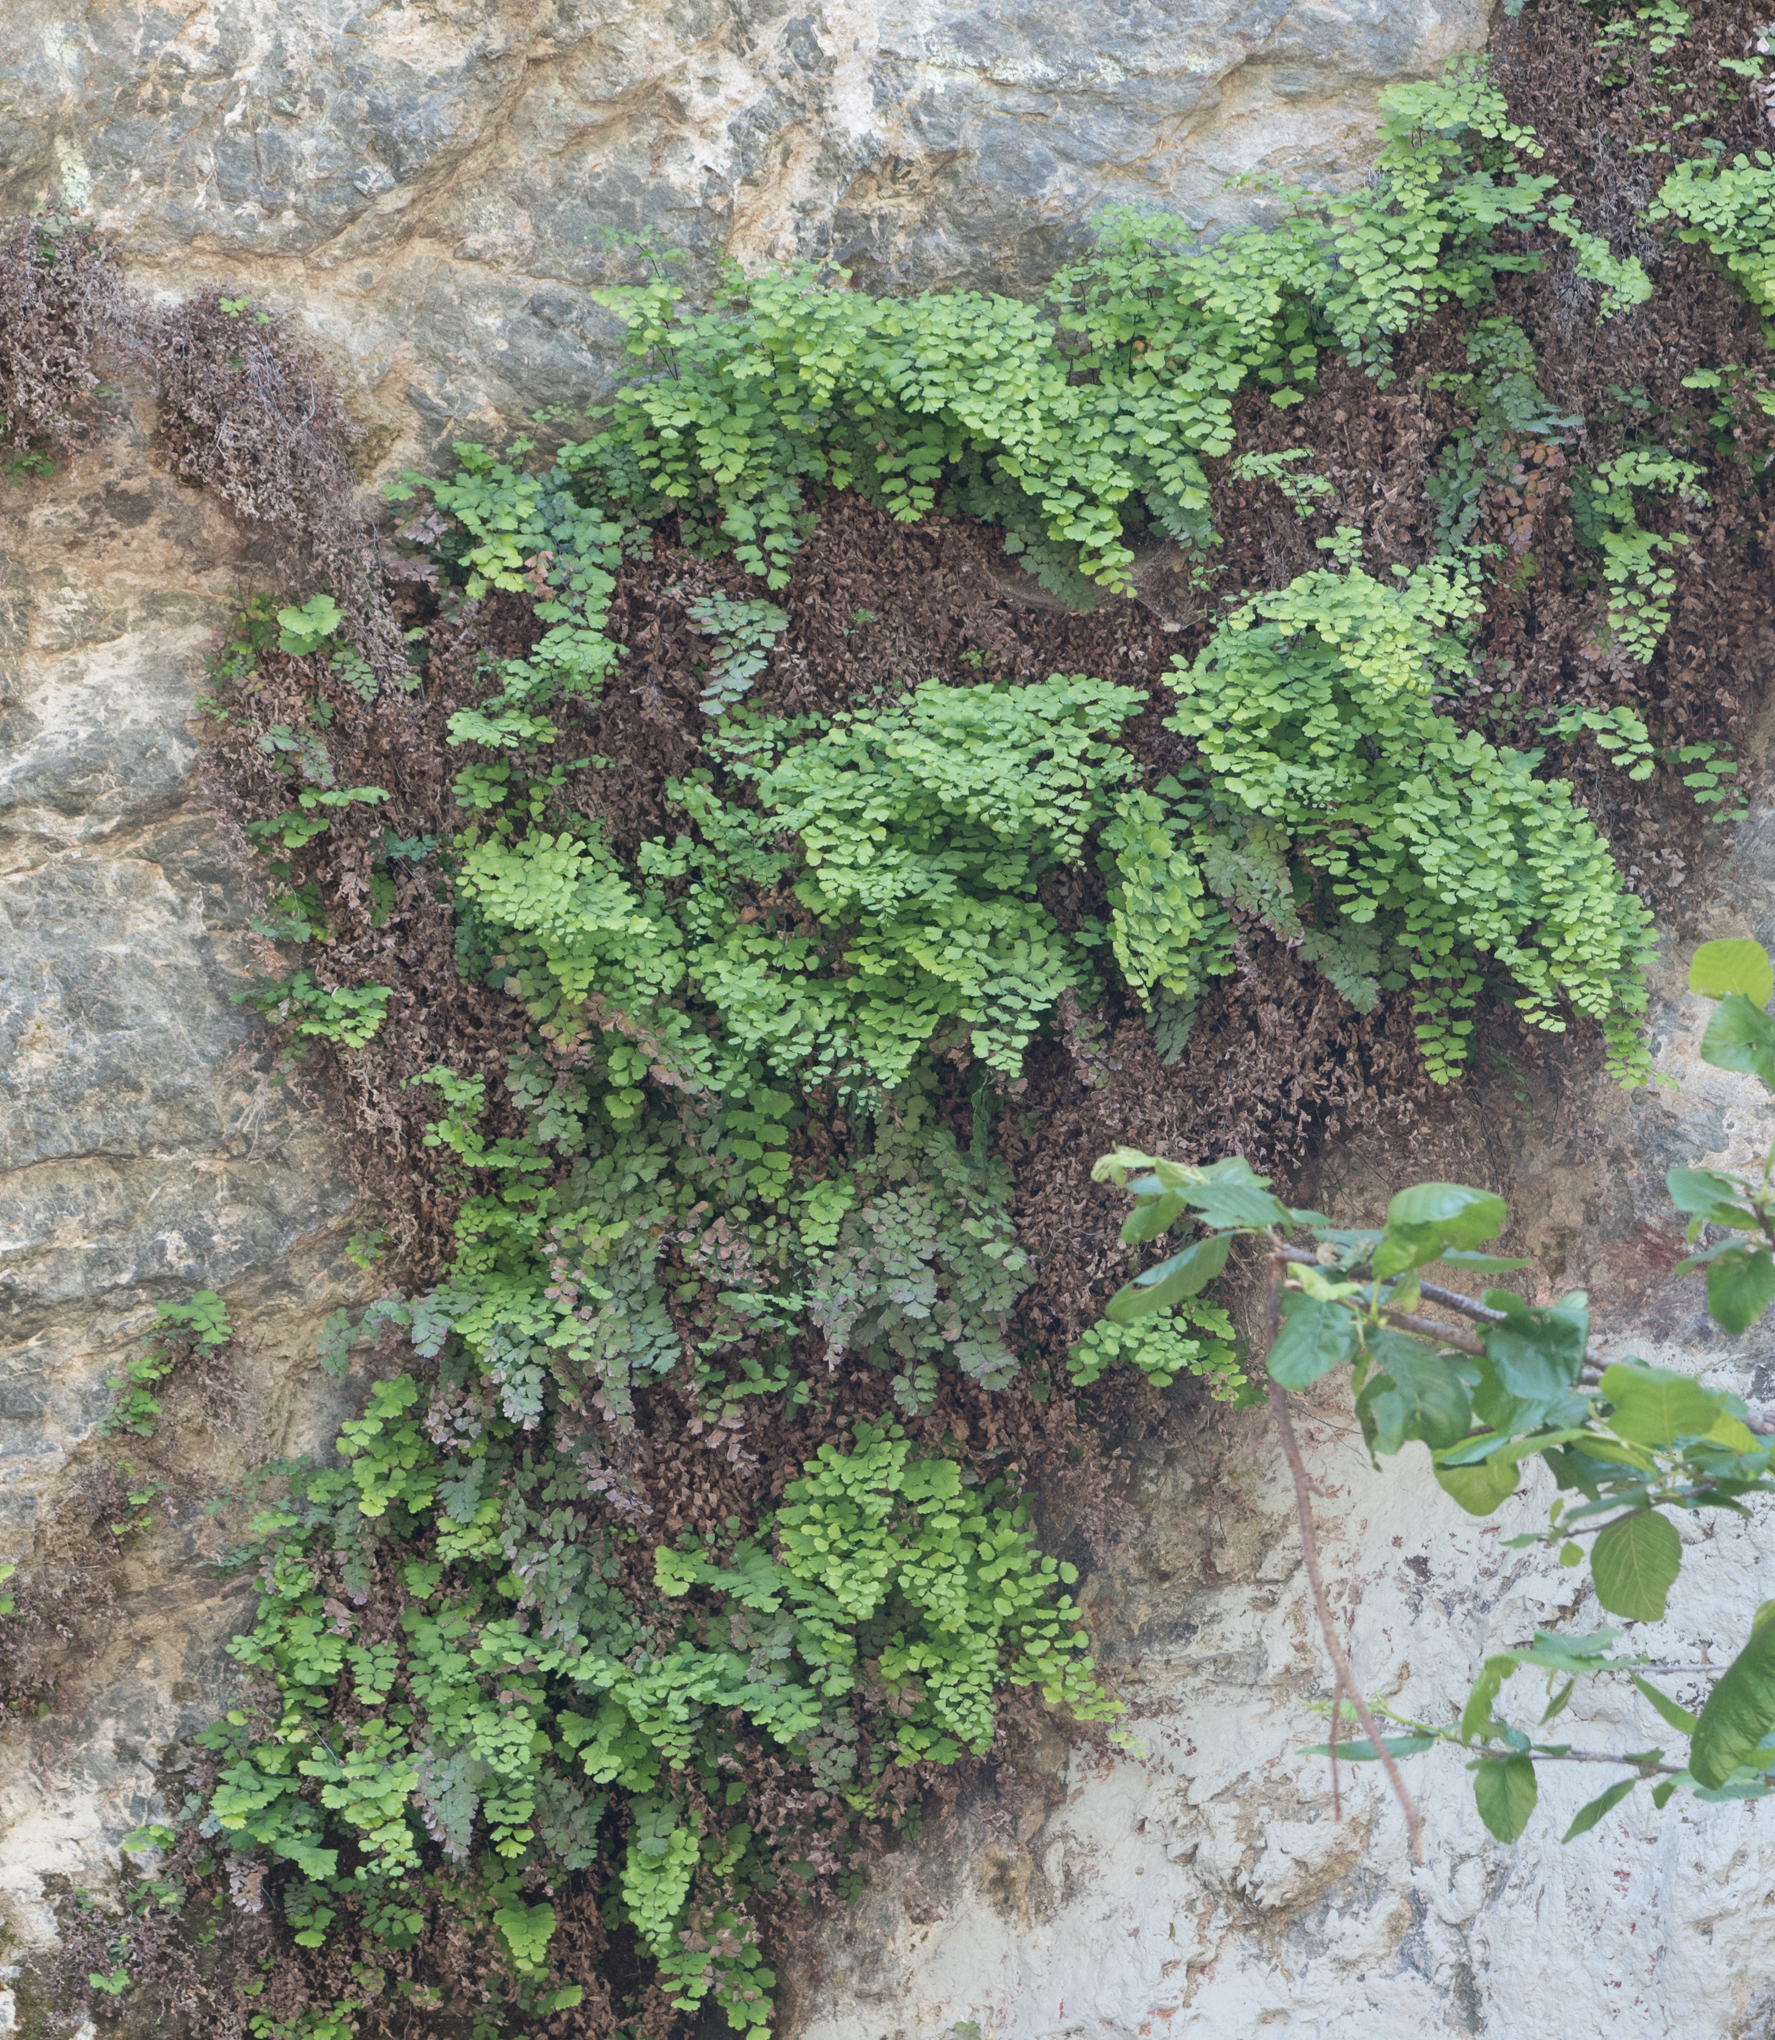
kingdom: Plantae
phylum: Tracheophyta
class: Polypodiopsida
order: Polypodiales
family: Pteridaceae
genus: Adiantum
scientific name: Adiantum capillus-veneris
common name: Maidenhair fern
